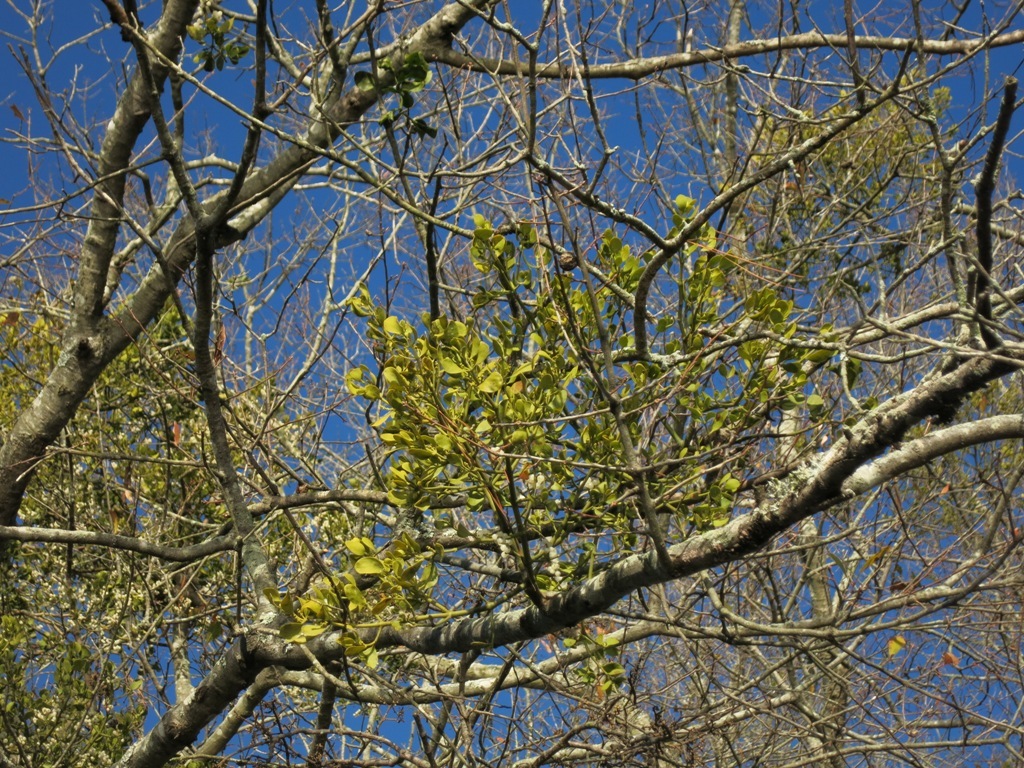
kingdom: Plantae
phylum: Tracheophyta
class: Magnoliopsida
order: Santalales
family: Viscaceae
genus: Phoradendron
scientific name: Phoradendron leucarpum
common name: Pacific mistletoe
